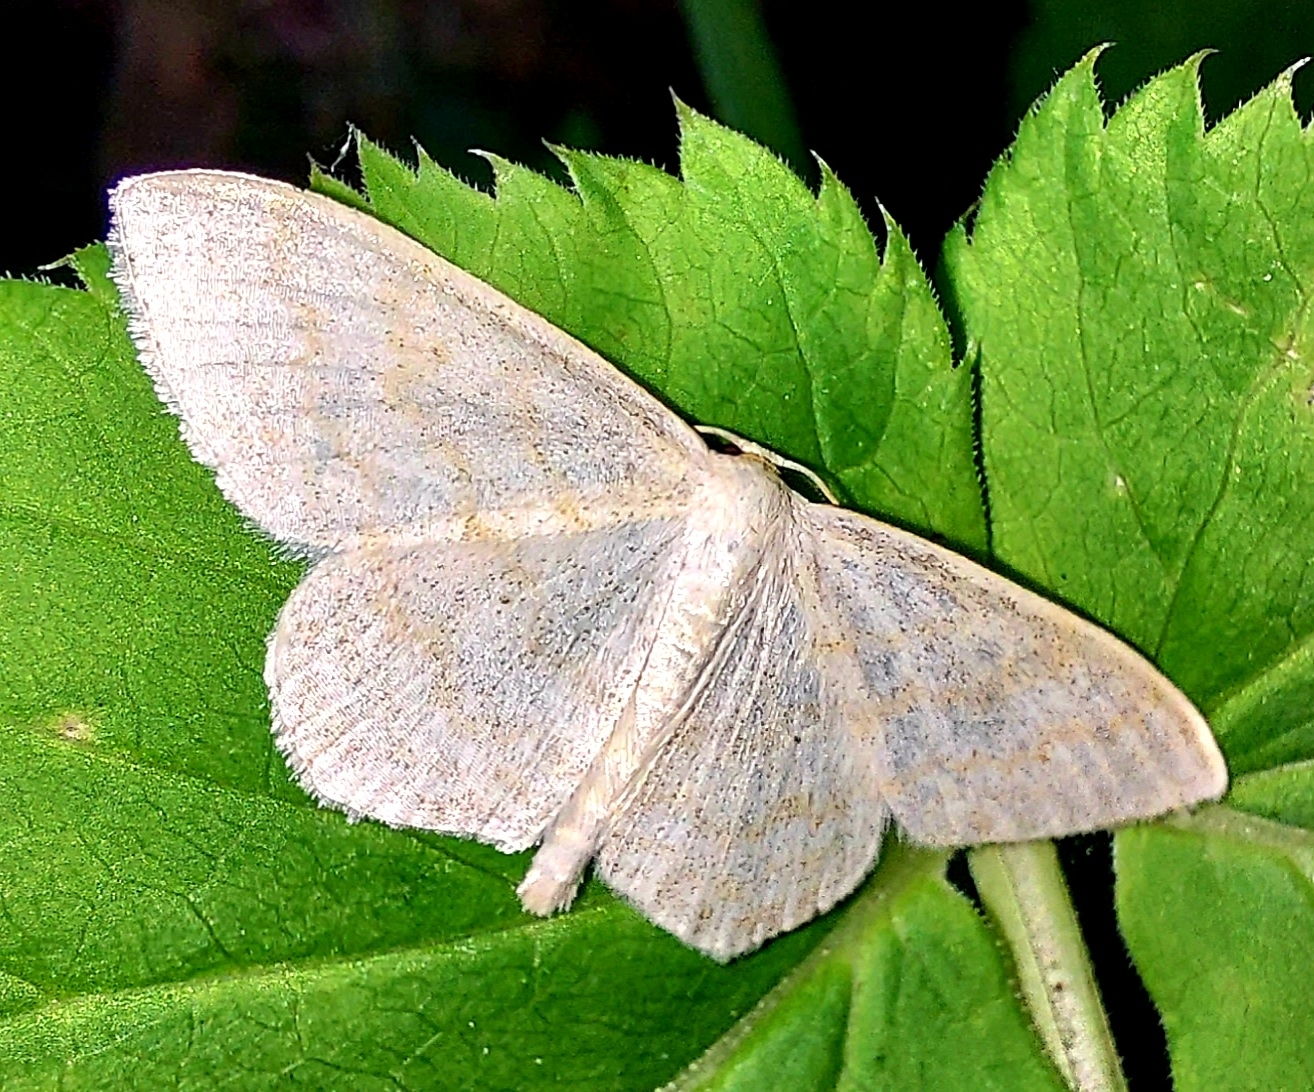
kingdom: Animalia
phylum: Arthropoda
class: Insecta
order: Lepidoptera
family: Geometridae
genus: Scopula
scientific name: Scopula floslactata
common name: Cream wave
